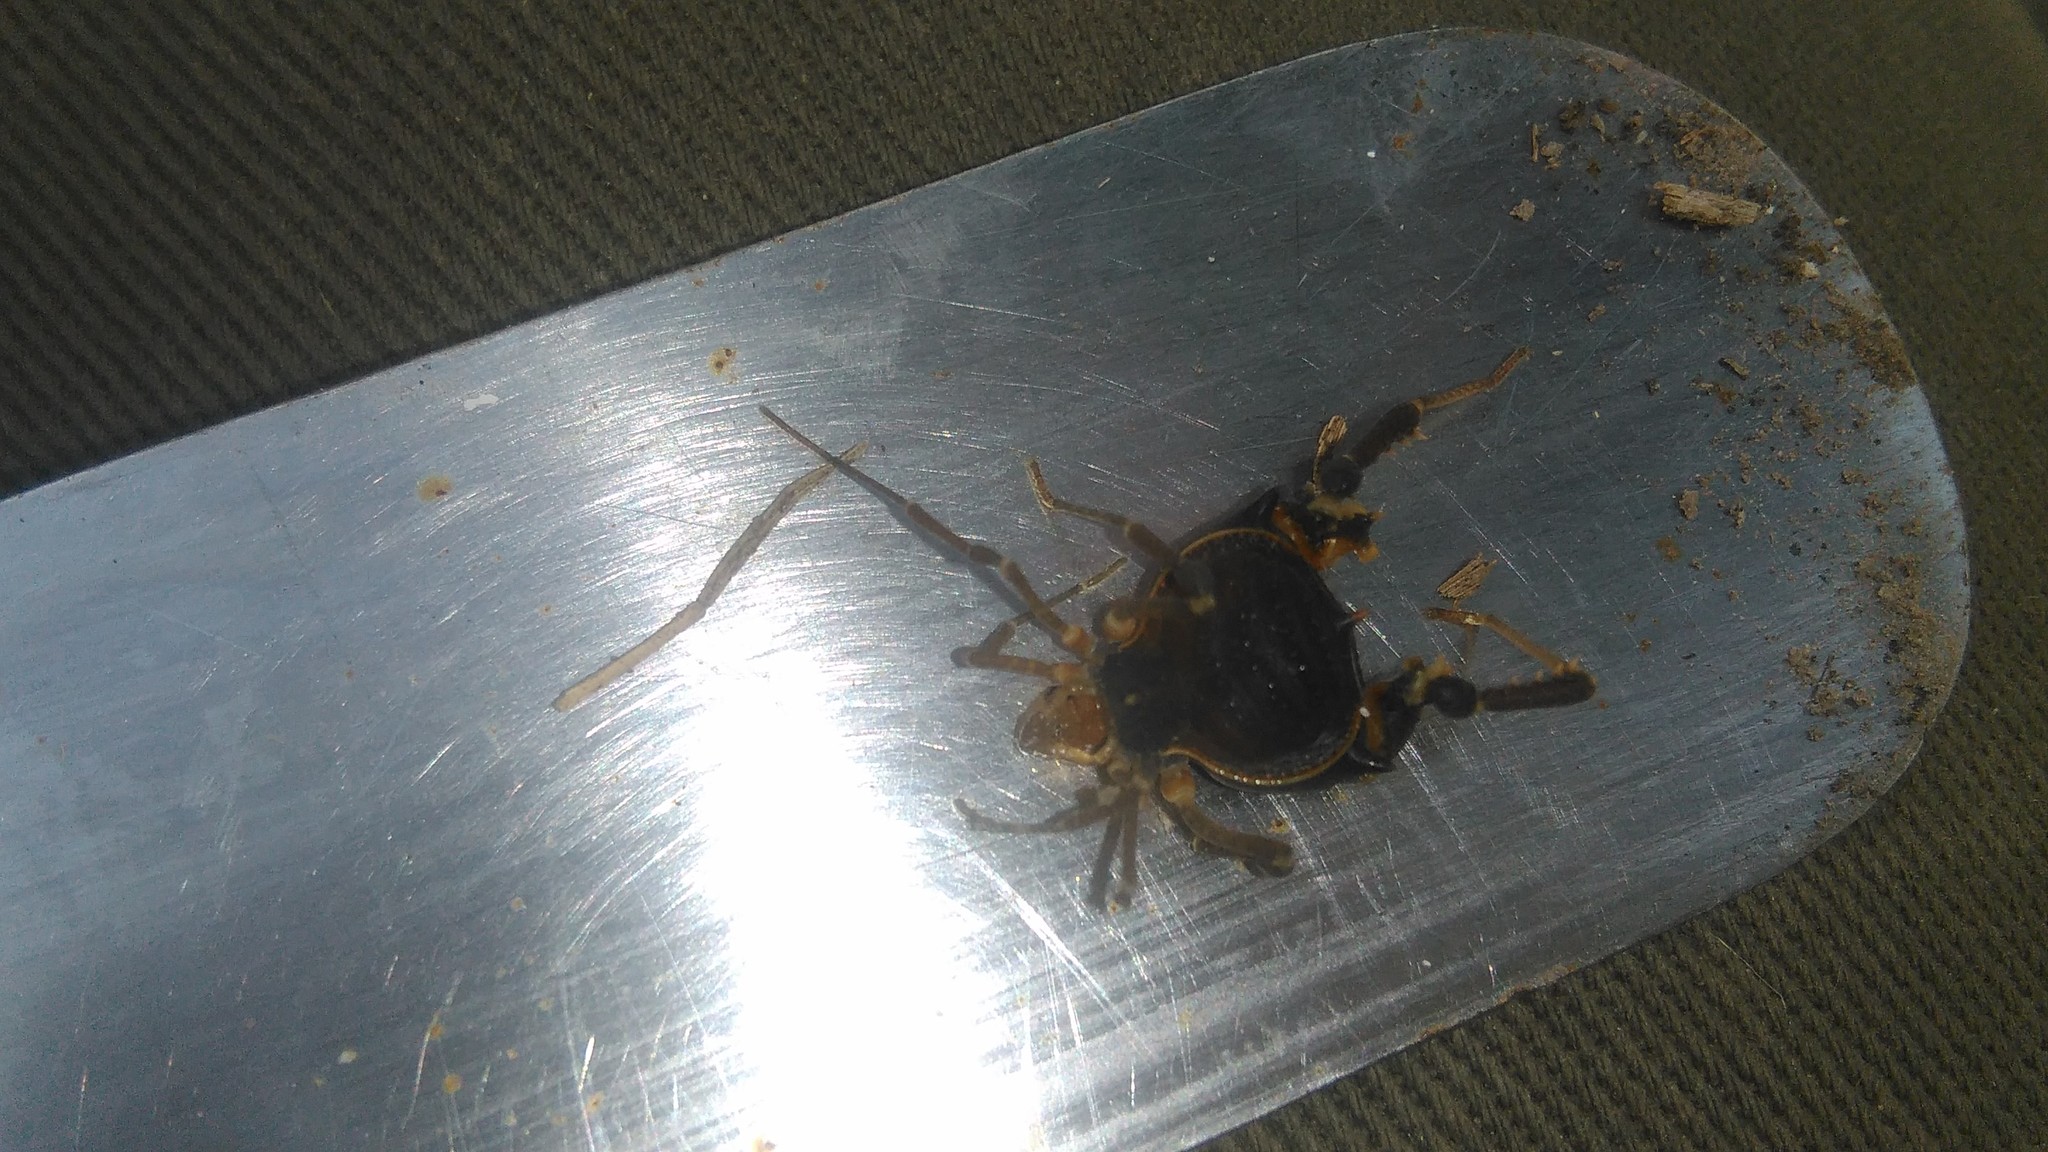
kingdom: Animalia
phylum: Arthropoda
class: Arachnida
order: Opiliones
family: Gonyleptidae
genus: Acanthopachylus
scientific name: Acanthopachylus robustus
